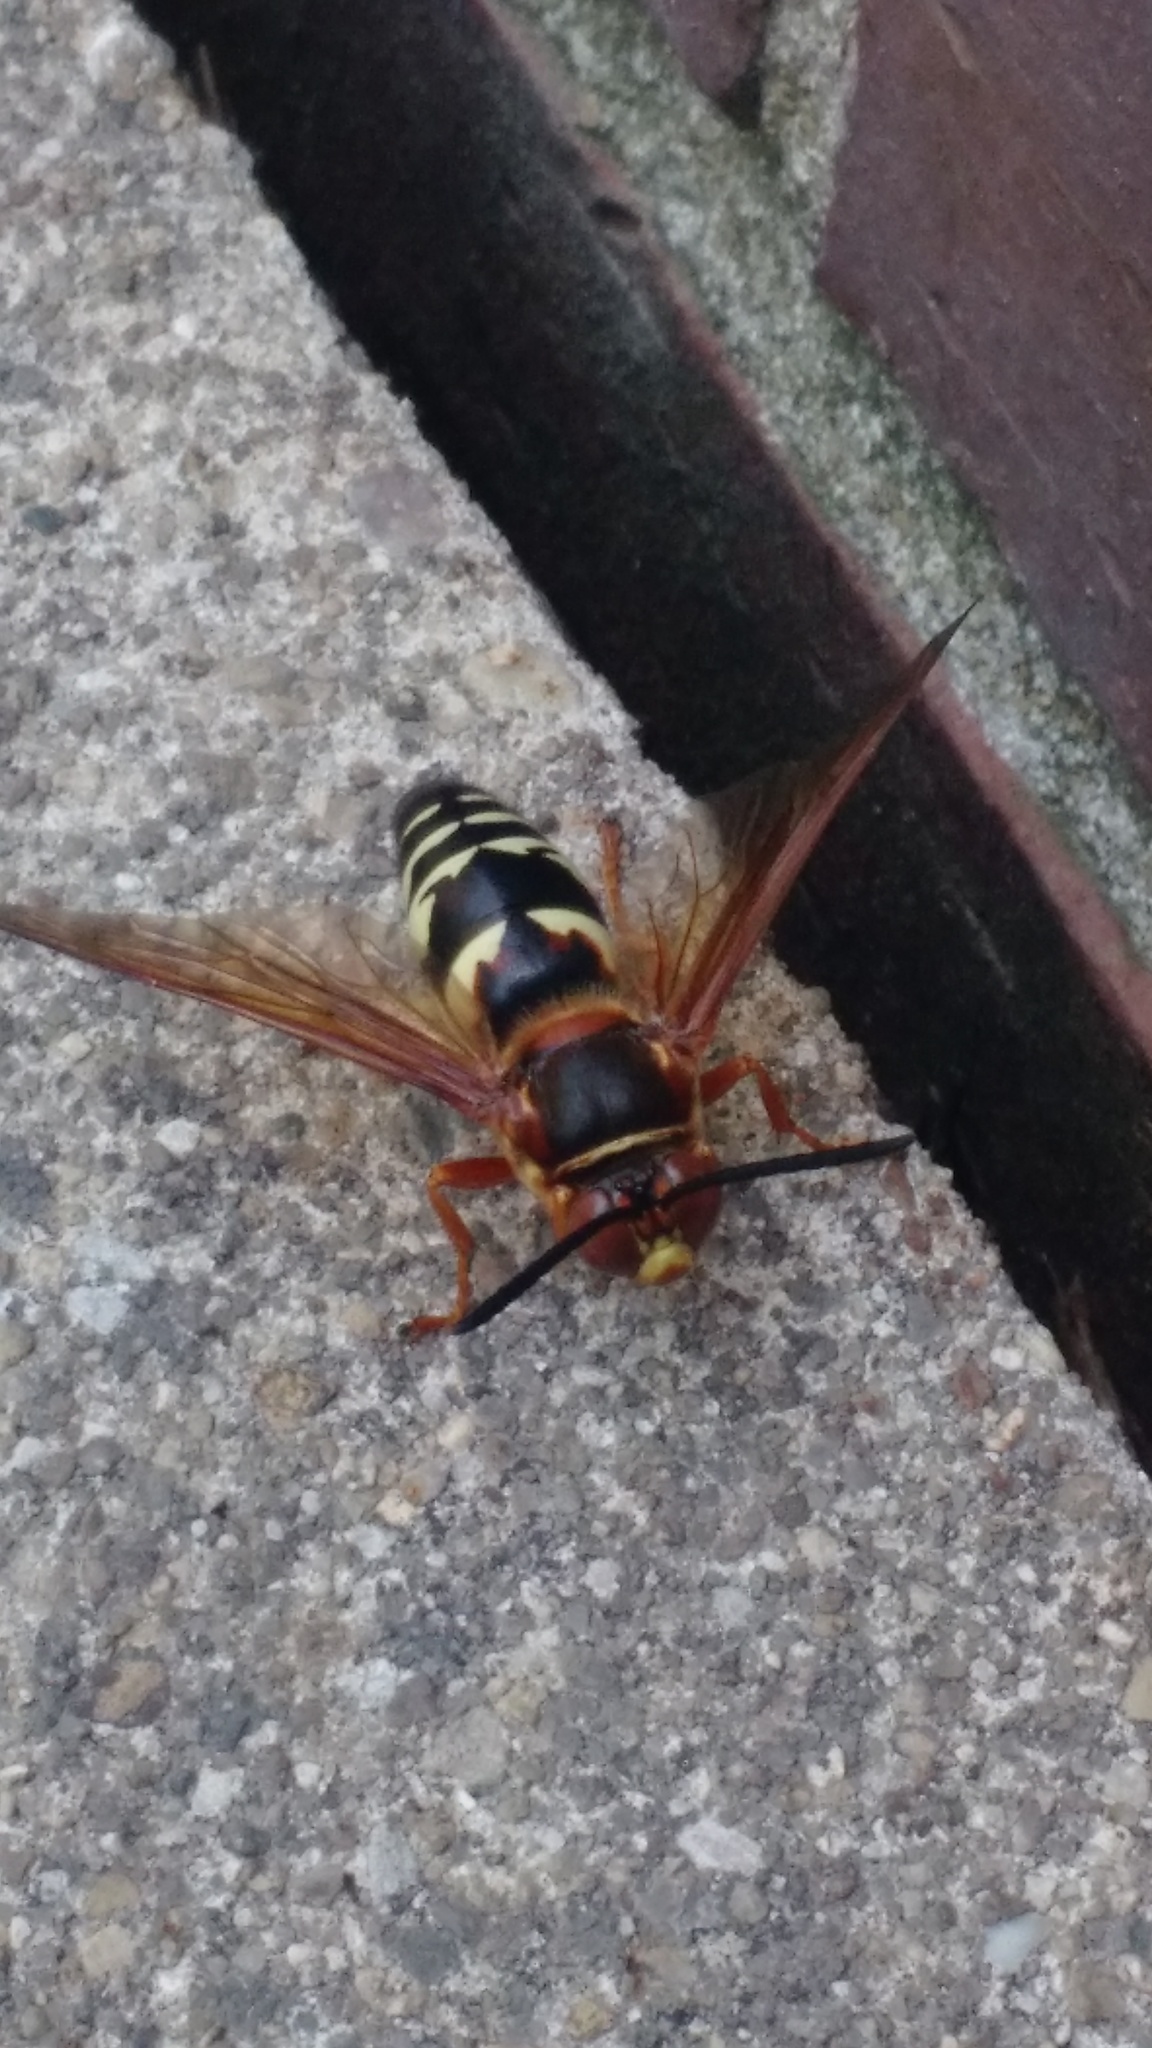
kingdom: Animalia
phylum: Arthropoda
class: Insecta
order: Hymenoptera
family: Crabronidae
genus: Sphecius
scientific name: Sphecius speciosus
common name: Cicada killer
